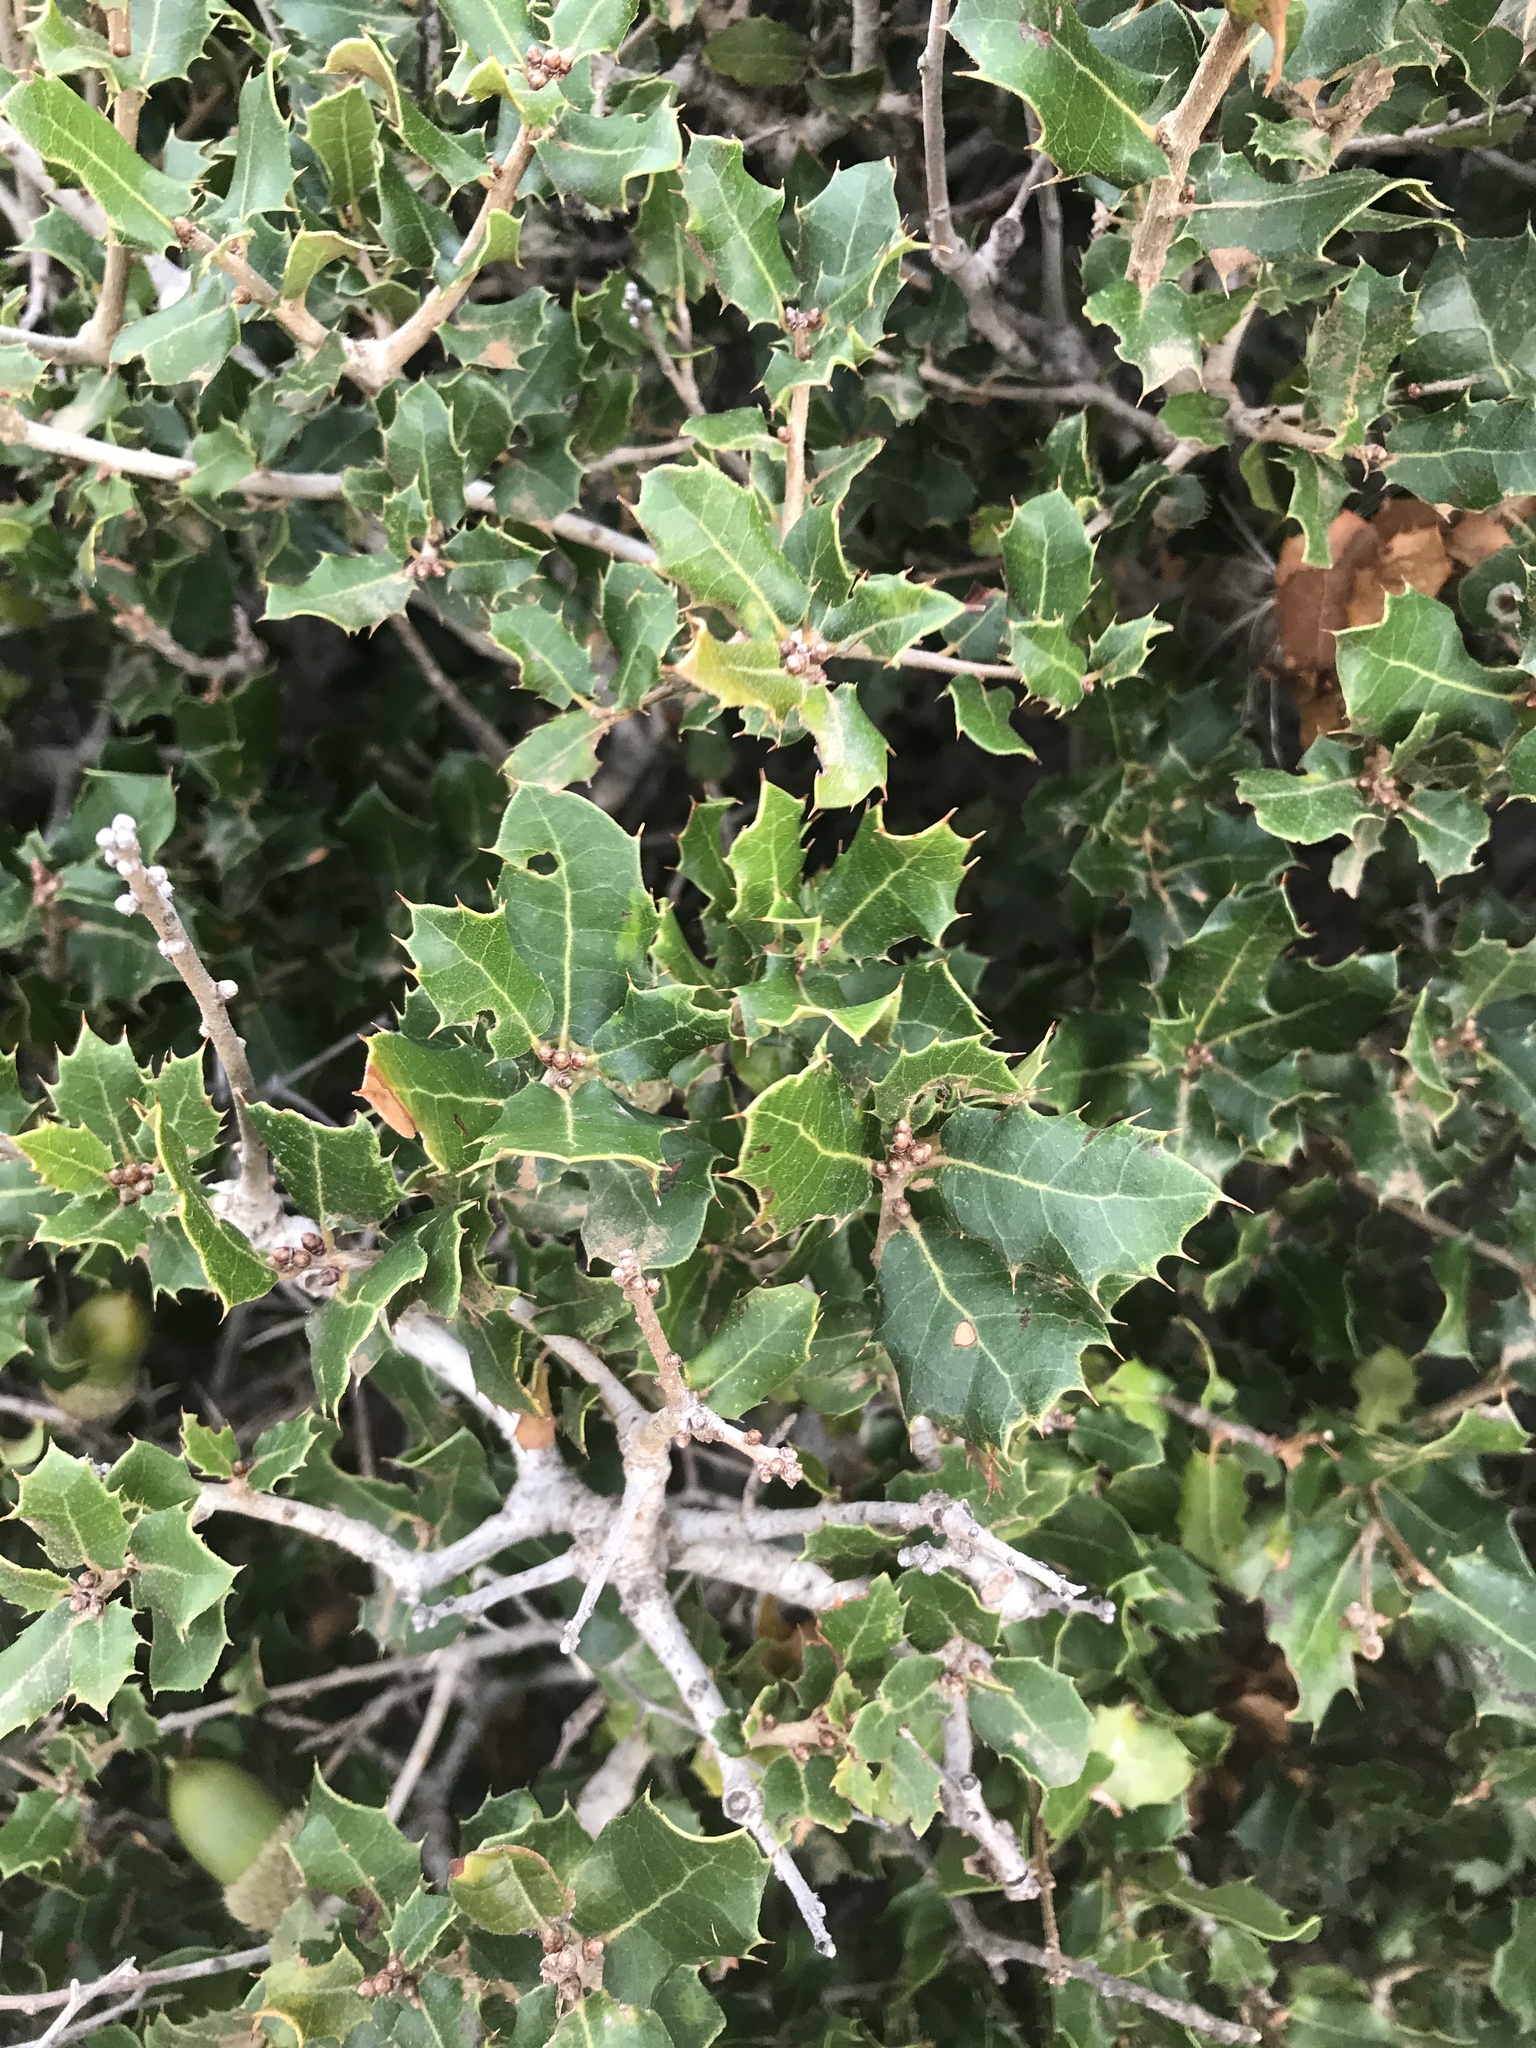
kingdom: Plantae
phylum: Tracheophyta
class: Magnoliopsida
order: Fagales
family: Fagaceae
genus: Quercus
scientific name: Quercus coccifera
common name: Kermes oak
